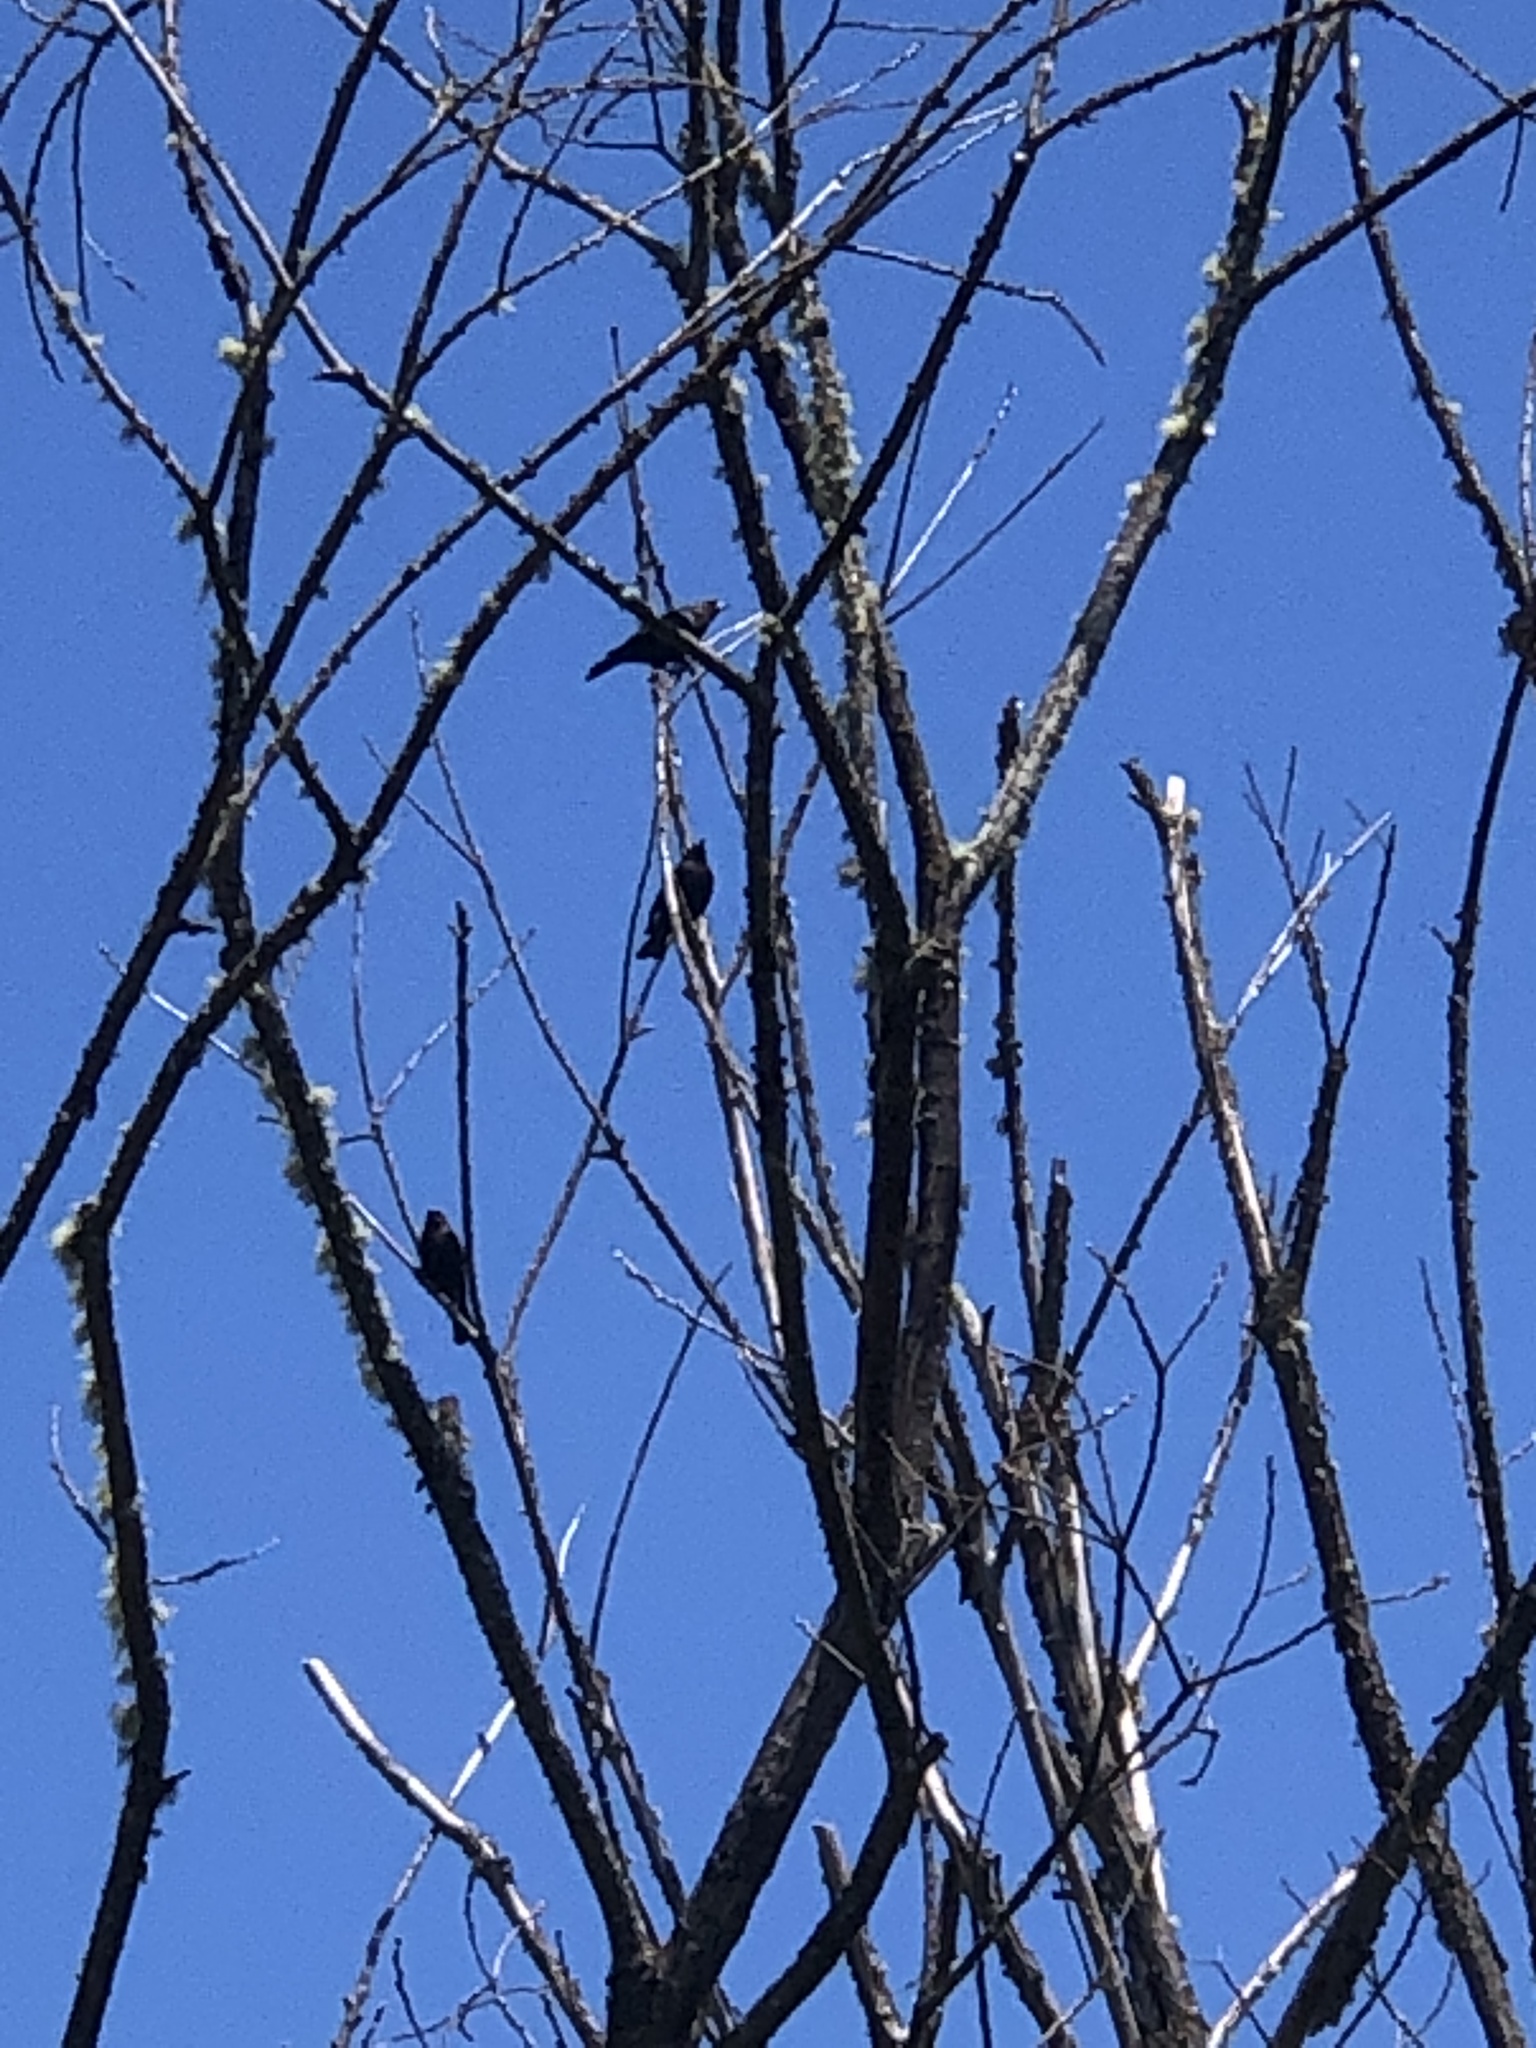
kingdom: Animalia
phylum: Chordata
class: Aves
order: Passeriformes
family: Icteridae
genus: Euphagus
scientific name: Euphagus cyanocephalus
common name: Brewer's blackbird
